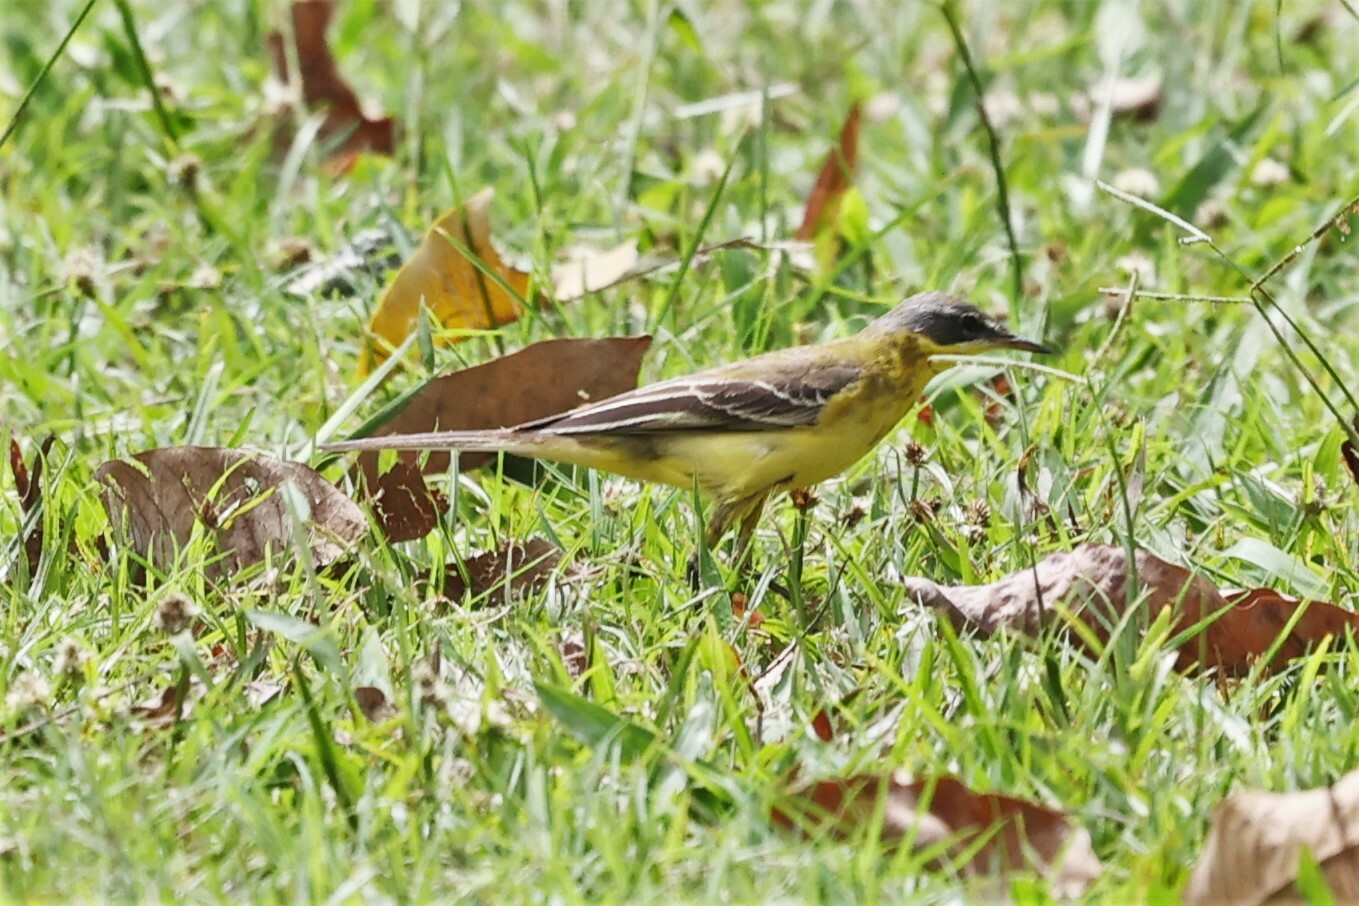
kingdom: Animalia
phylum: Chordata
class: Aves
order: Passeriformes
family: Motacillidae
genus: Motacilla
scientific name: Motacilla flava
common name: Western yellow wagtail
